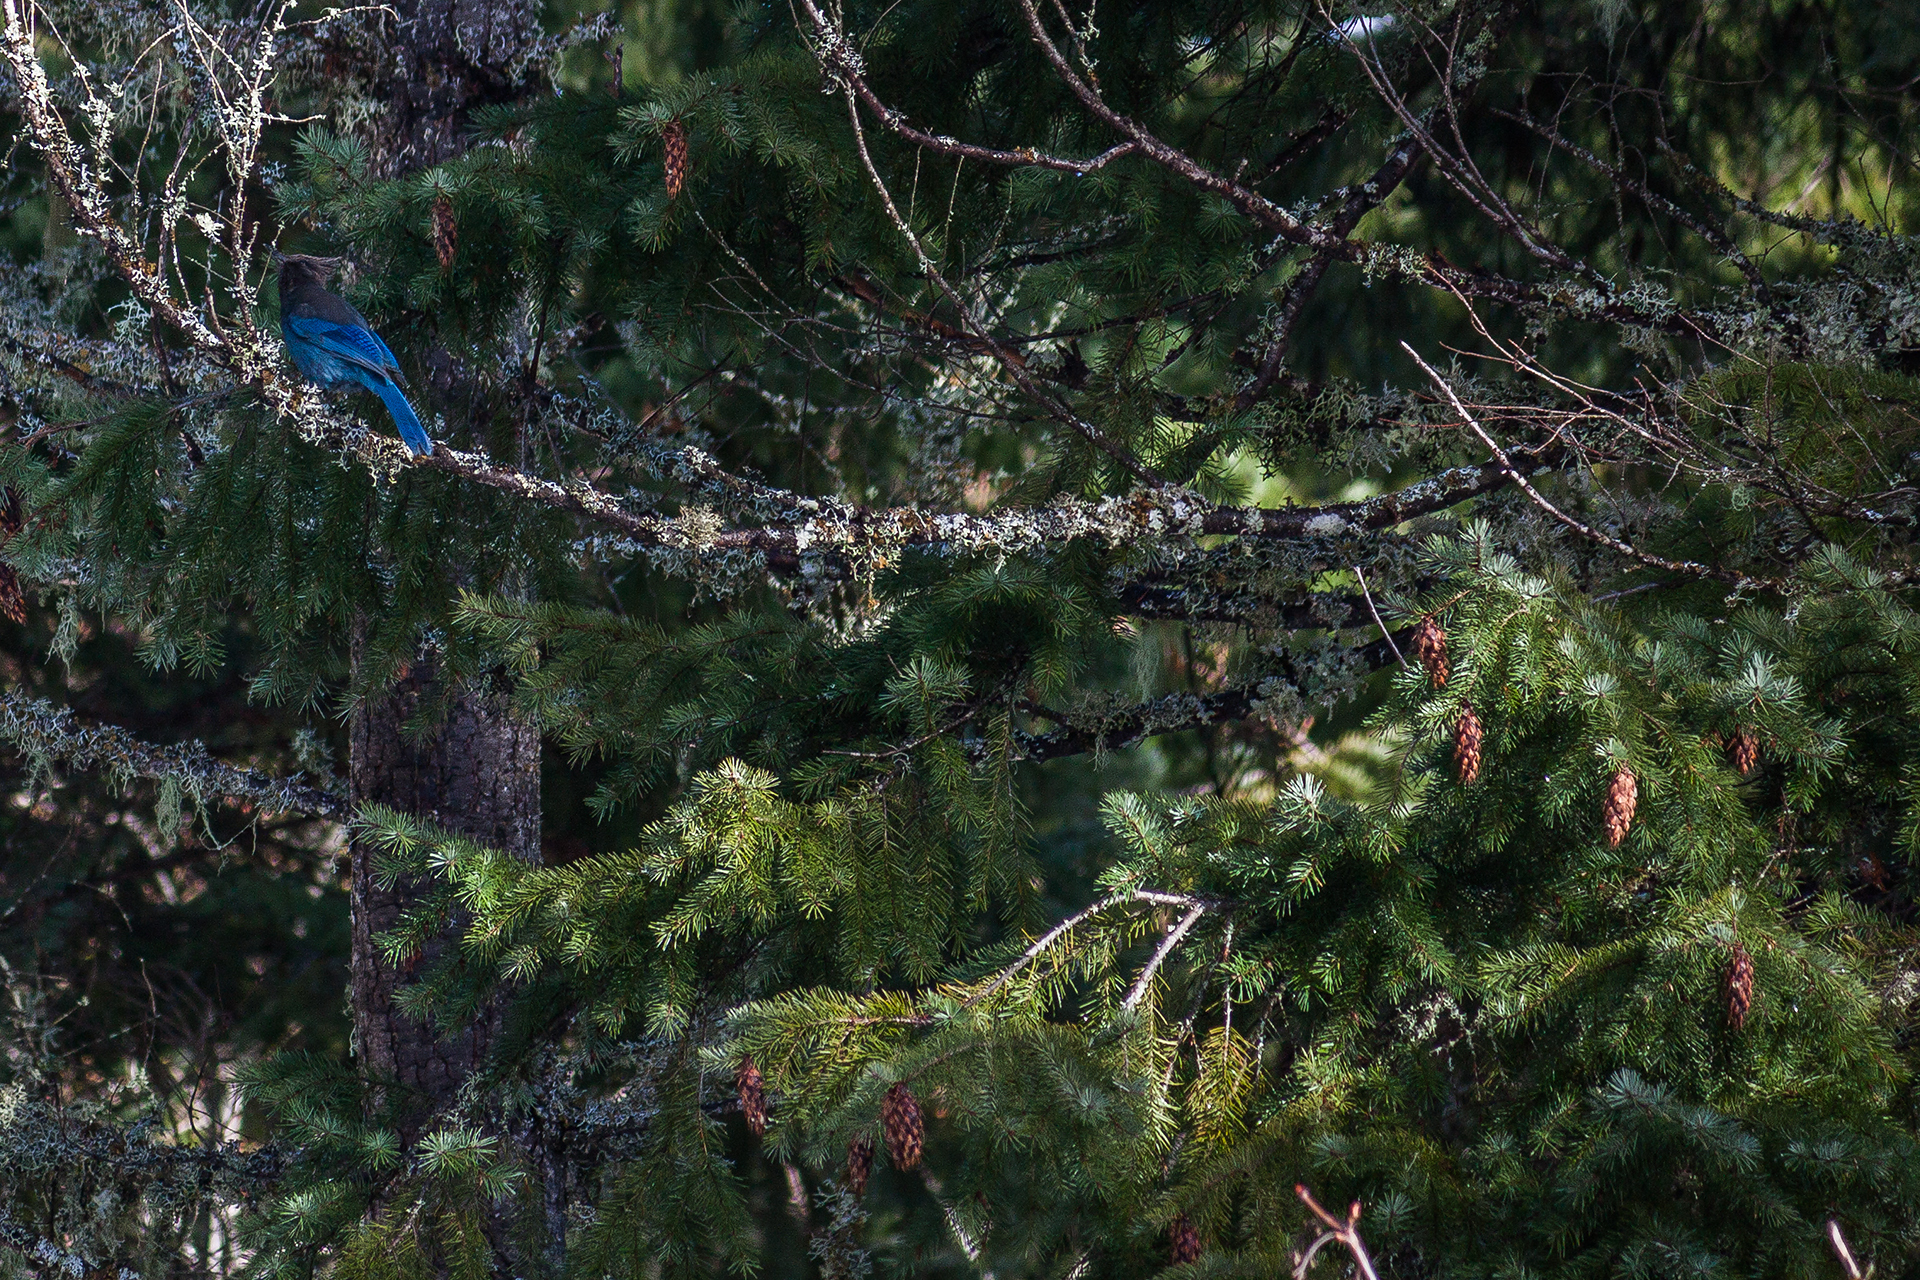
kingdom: Plantae
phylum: Tracheophyta
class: Pinopsida
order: Pinales
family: Pinaceae
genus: Pseudotsuga
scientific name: Pseudotsuga menziesii
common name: Douglas fir
